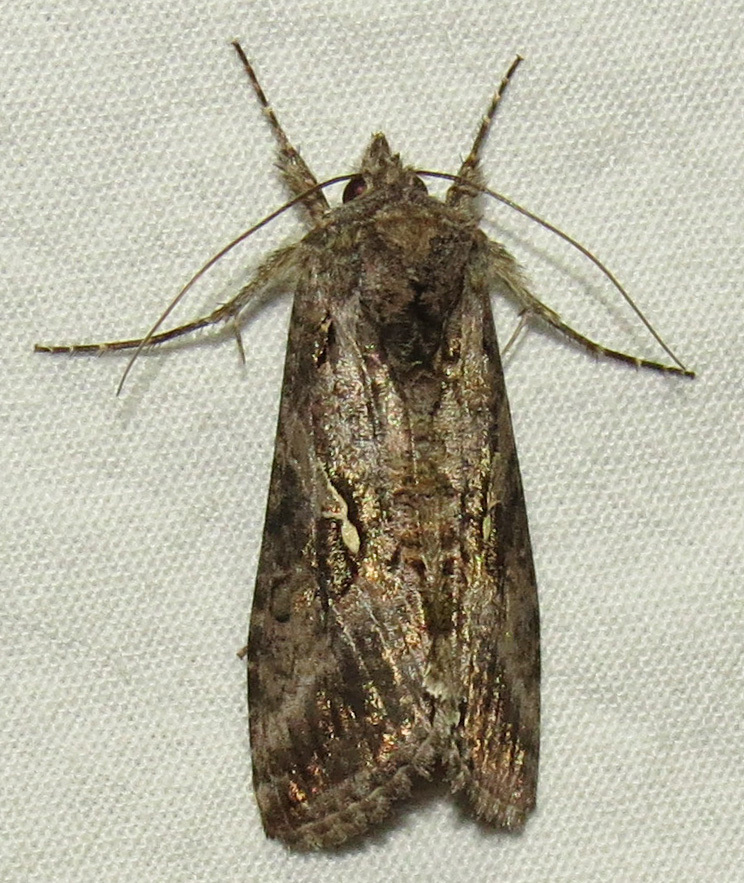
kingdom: Animalia
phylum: Arthropoda
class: Insecta
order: Lepidoptera
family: Noctuidae
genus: Rachiplusia
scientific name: Rachiplusia ou
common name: Gray looper moth
